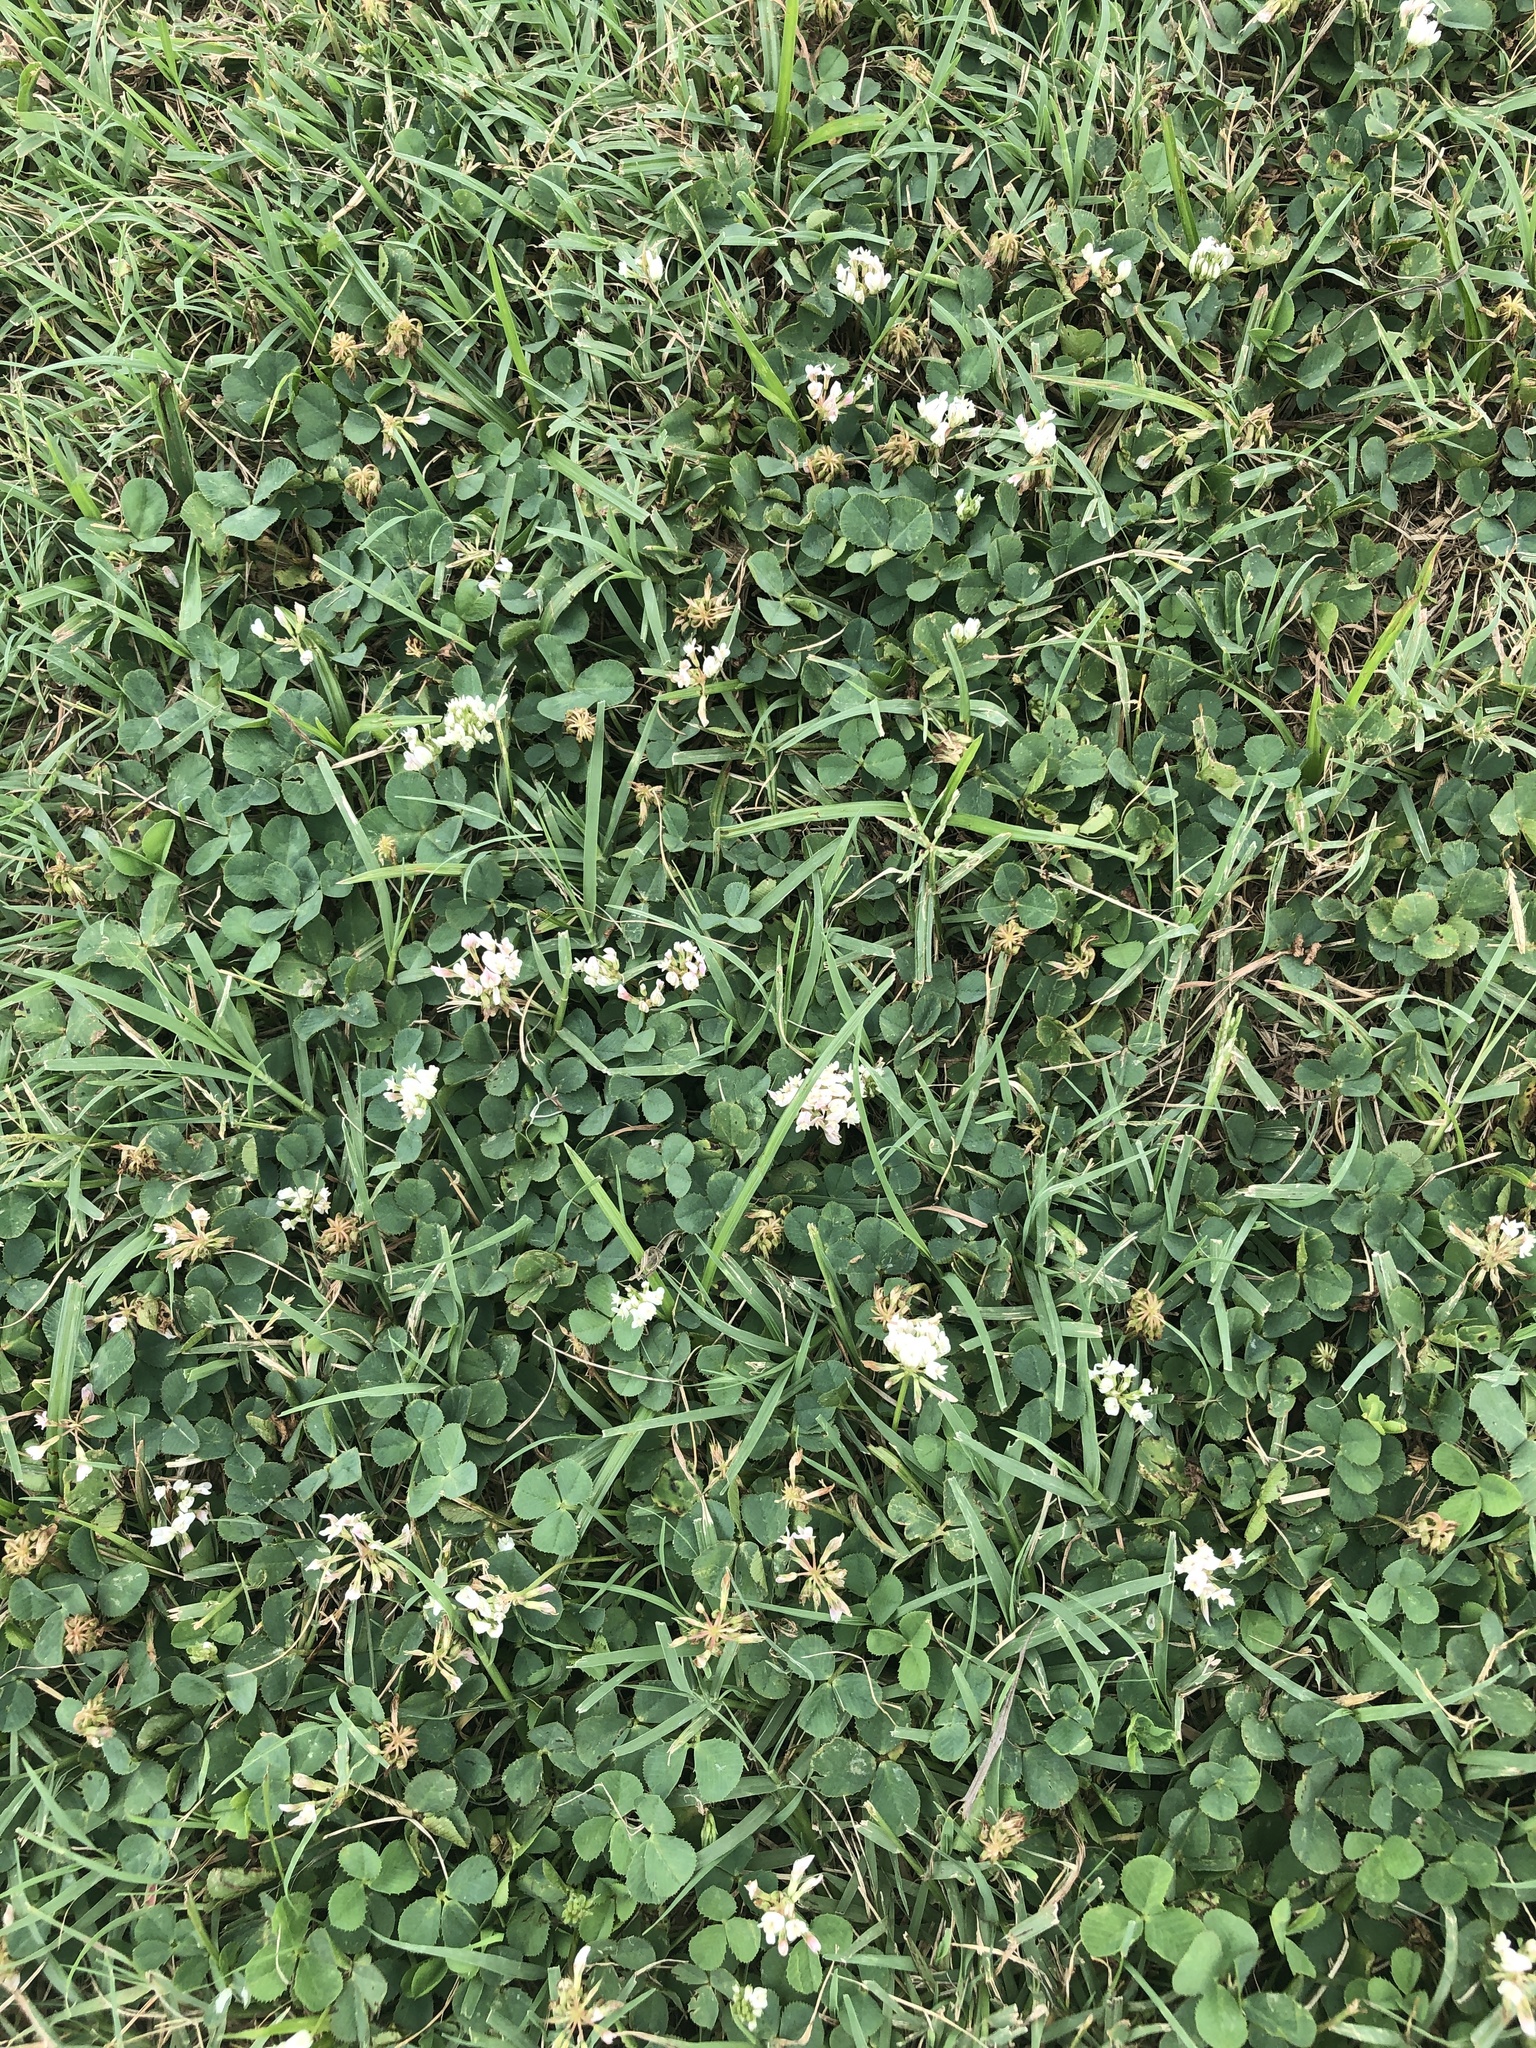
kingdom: Plantae
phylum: Tracheophyta
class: Magnoliopsida
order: Fabales
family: Fabaceae
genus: Trifolium
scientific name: Trifolium repens
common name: White clover
